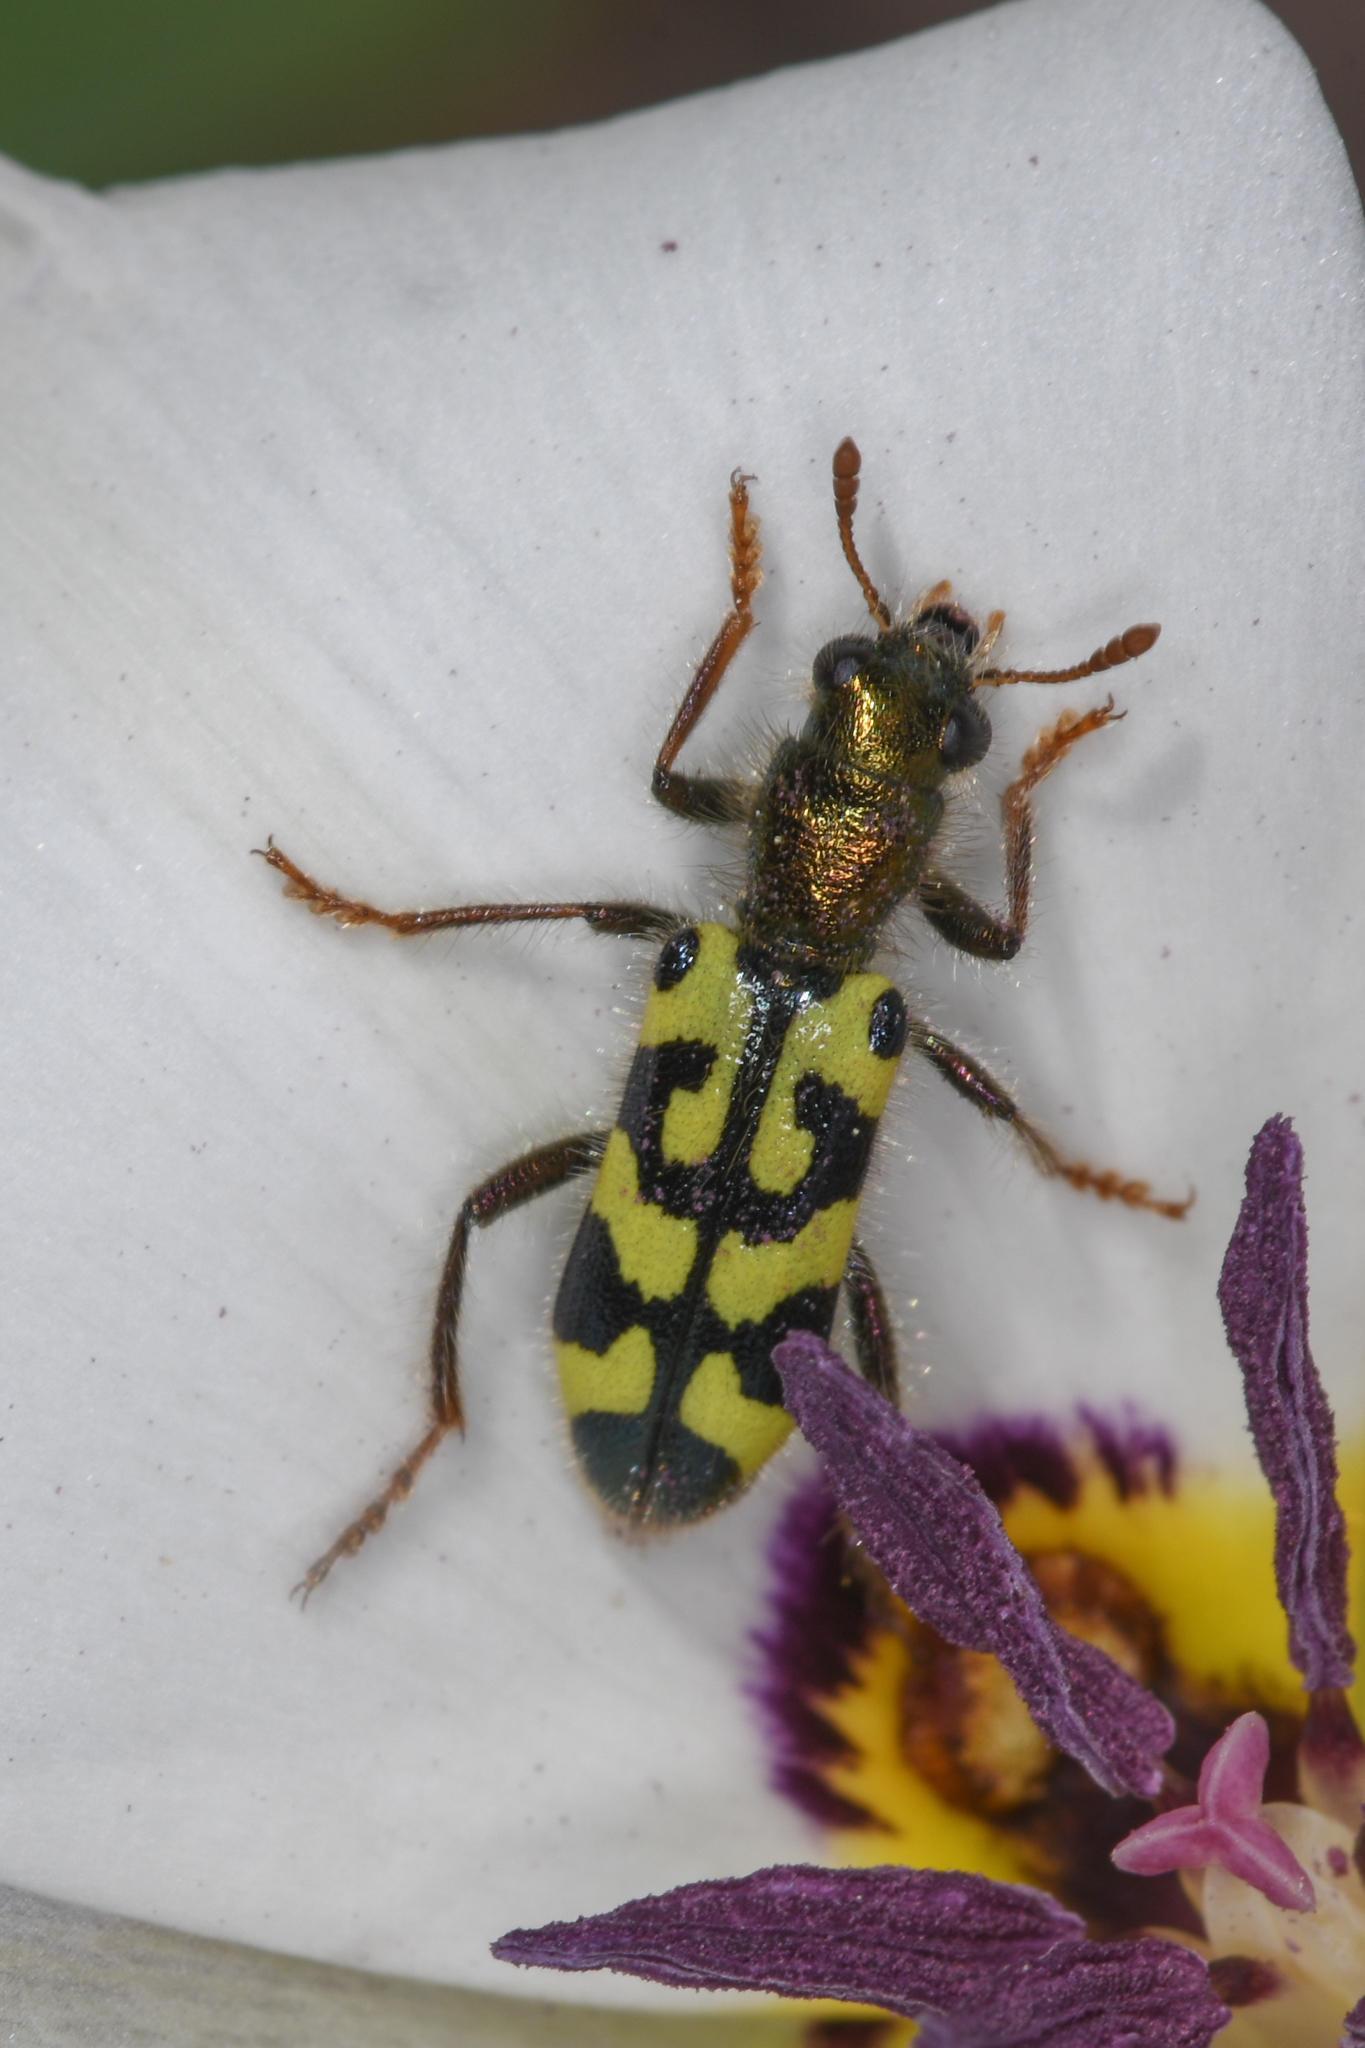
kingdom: Animalia
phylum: Arthropoda
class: Insecta
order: Coleoptera
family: Cleridae
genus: Trichodes
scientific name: Trichodes ornatus
